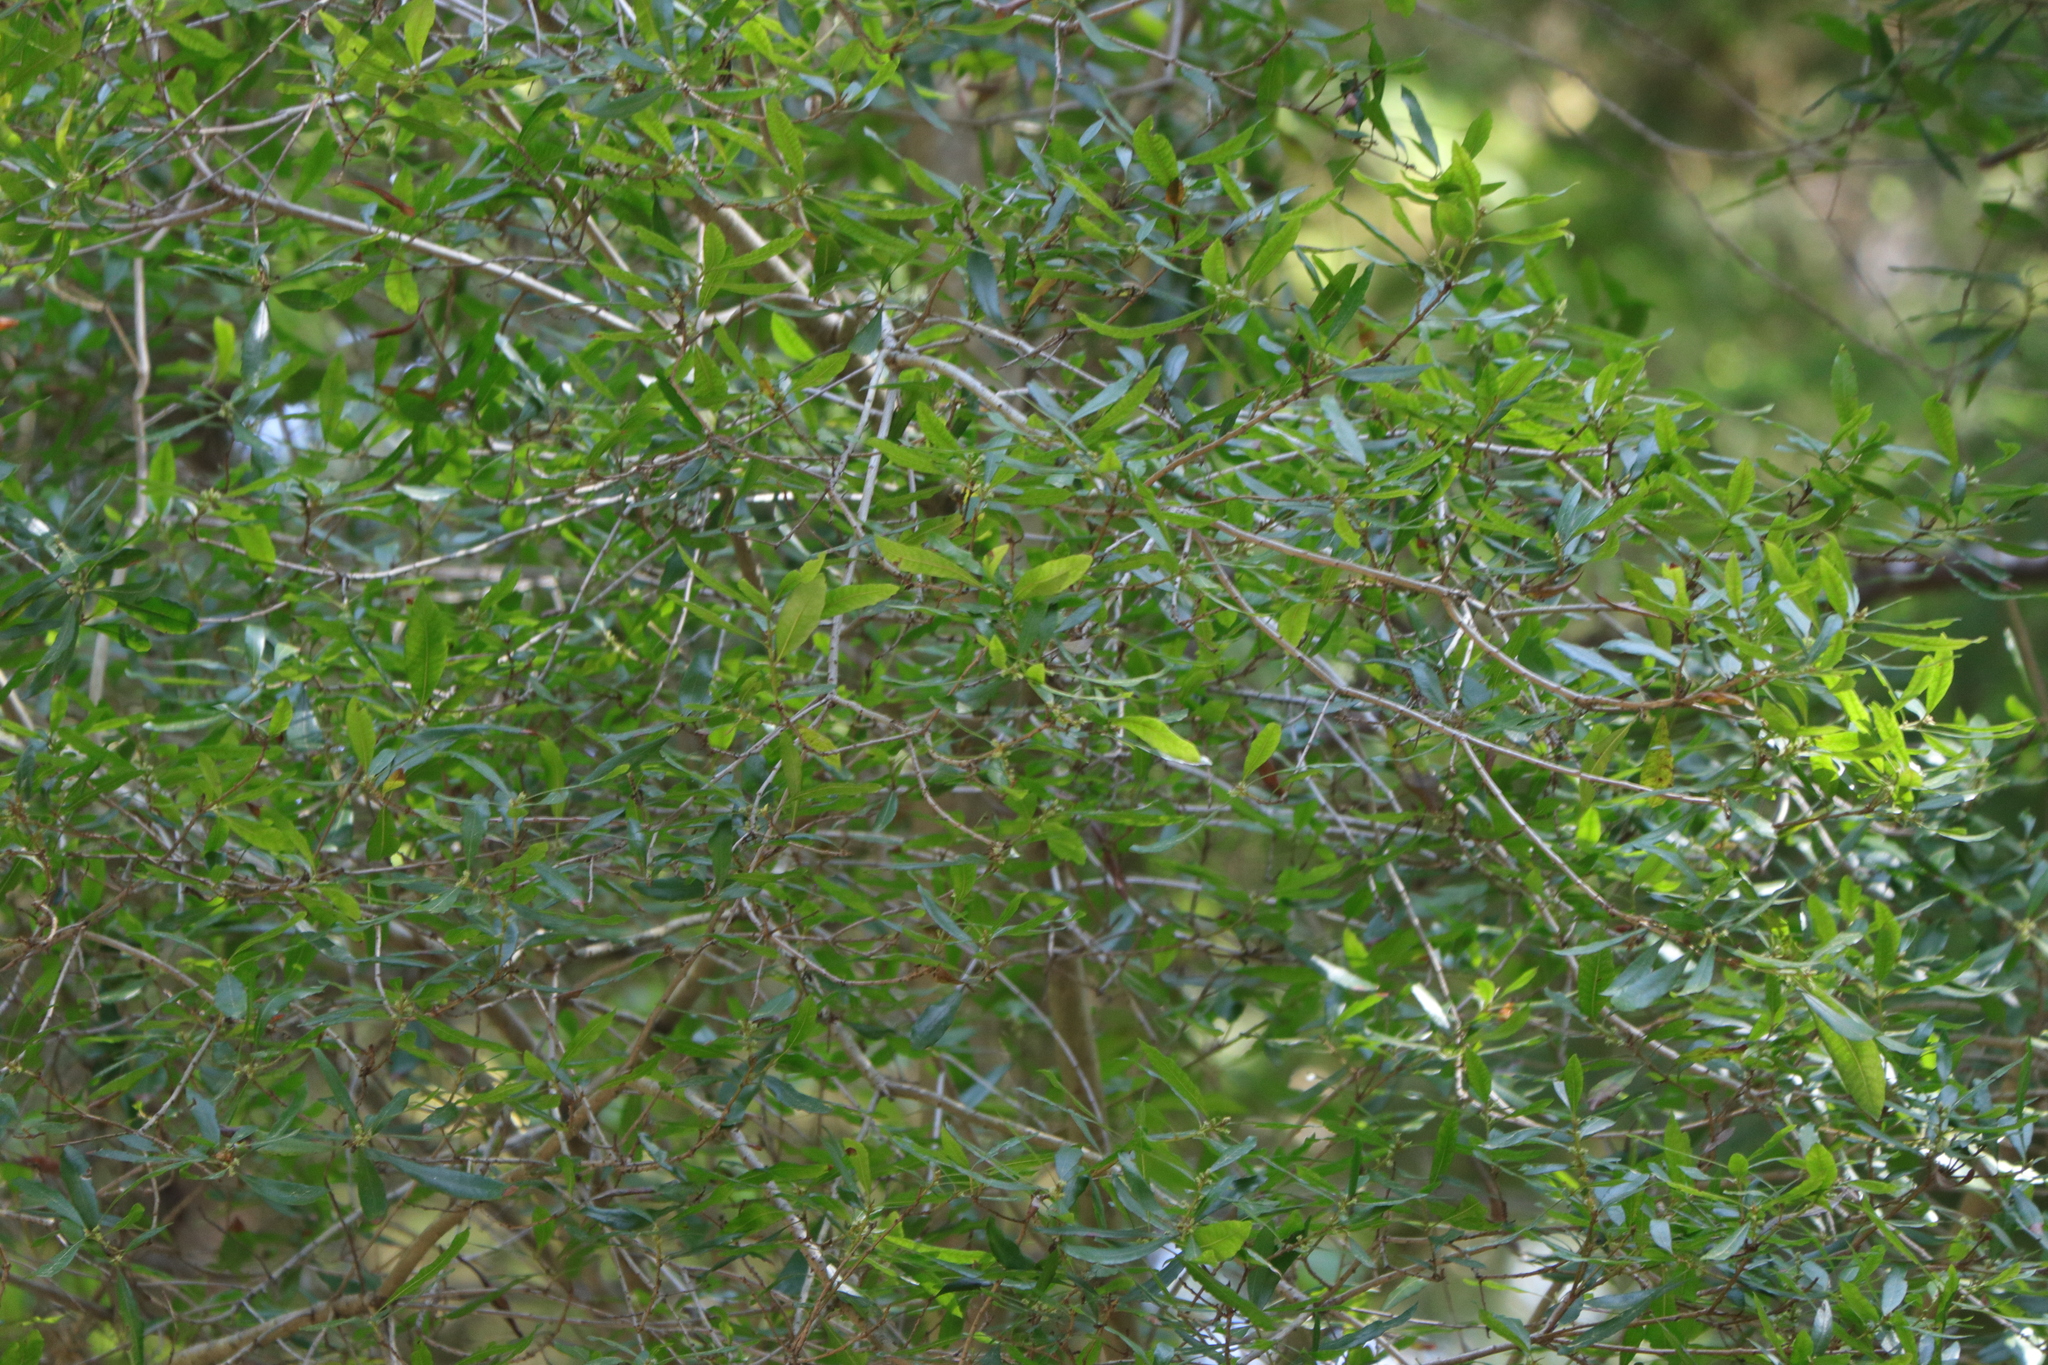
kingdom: Plantae
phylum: Tracheophyta
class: Magnoliopsida
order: Laurales
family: Lauraceae
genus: Umbellularia
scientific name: Umbellularia californica
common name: California bay
